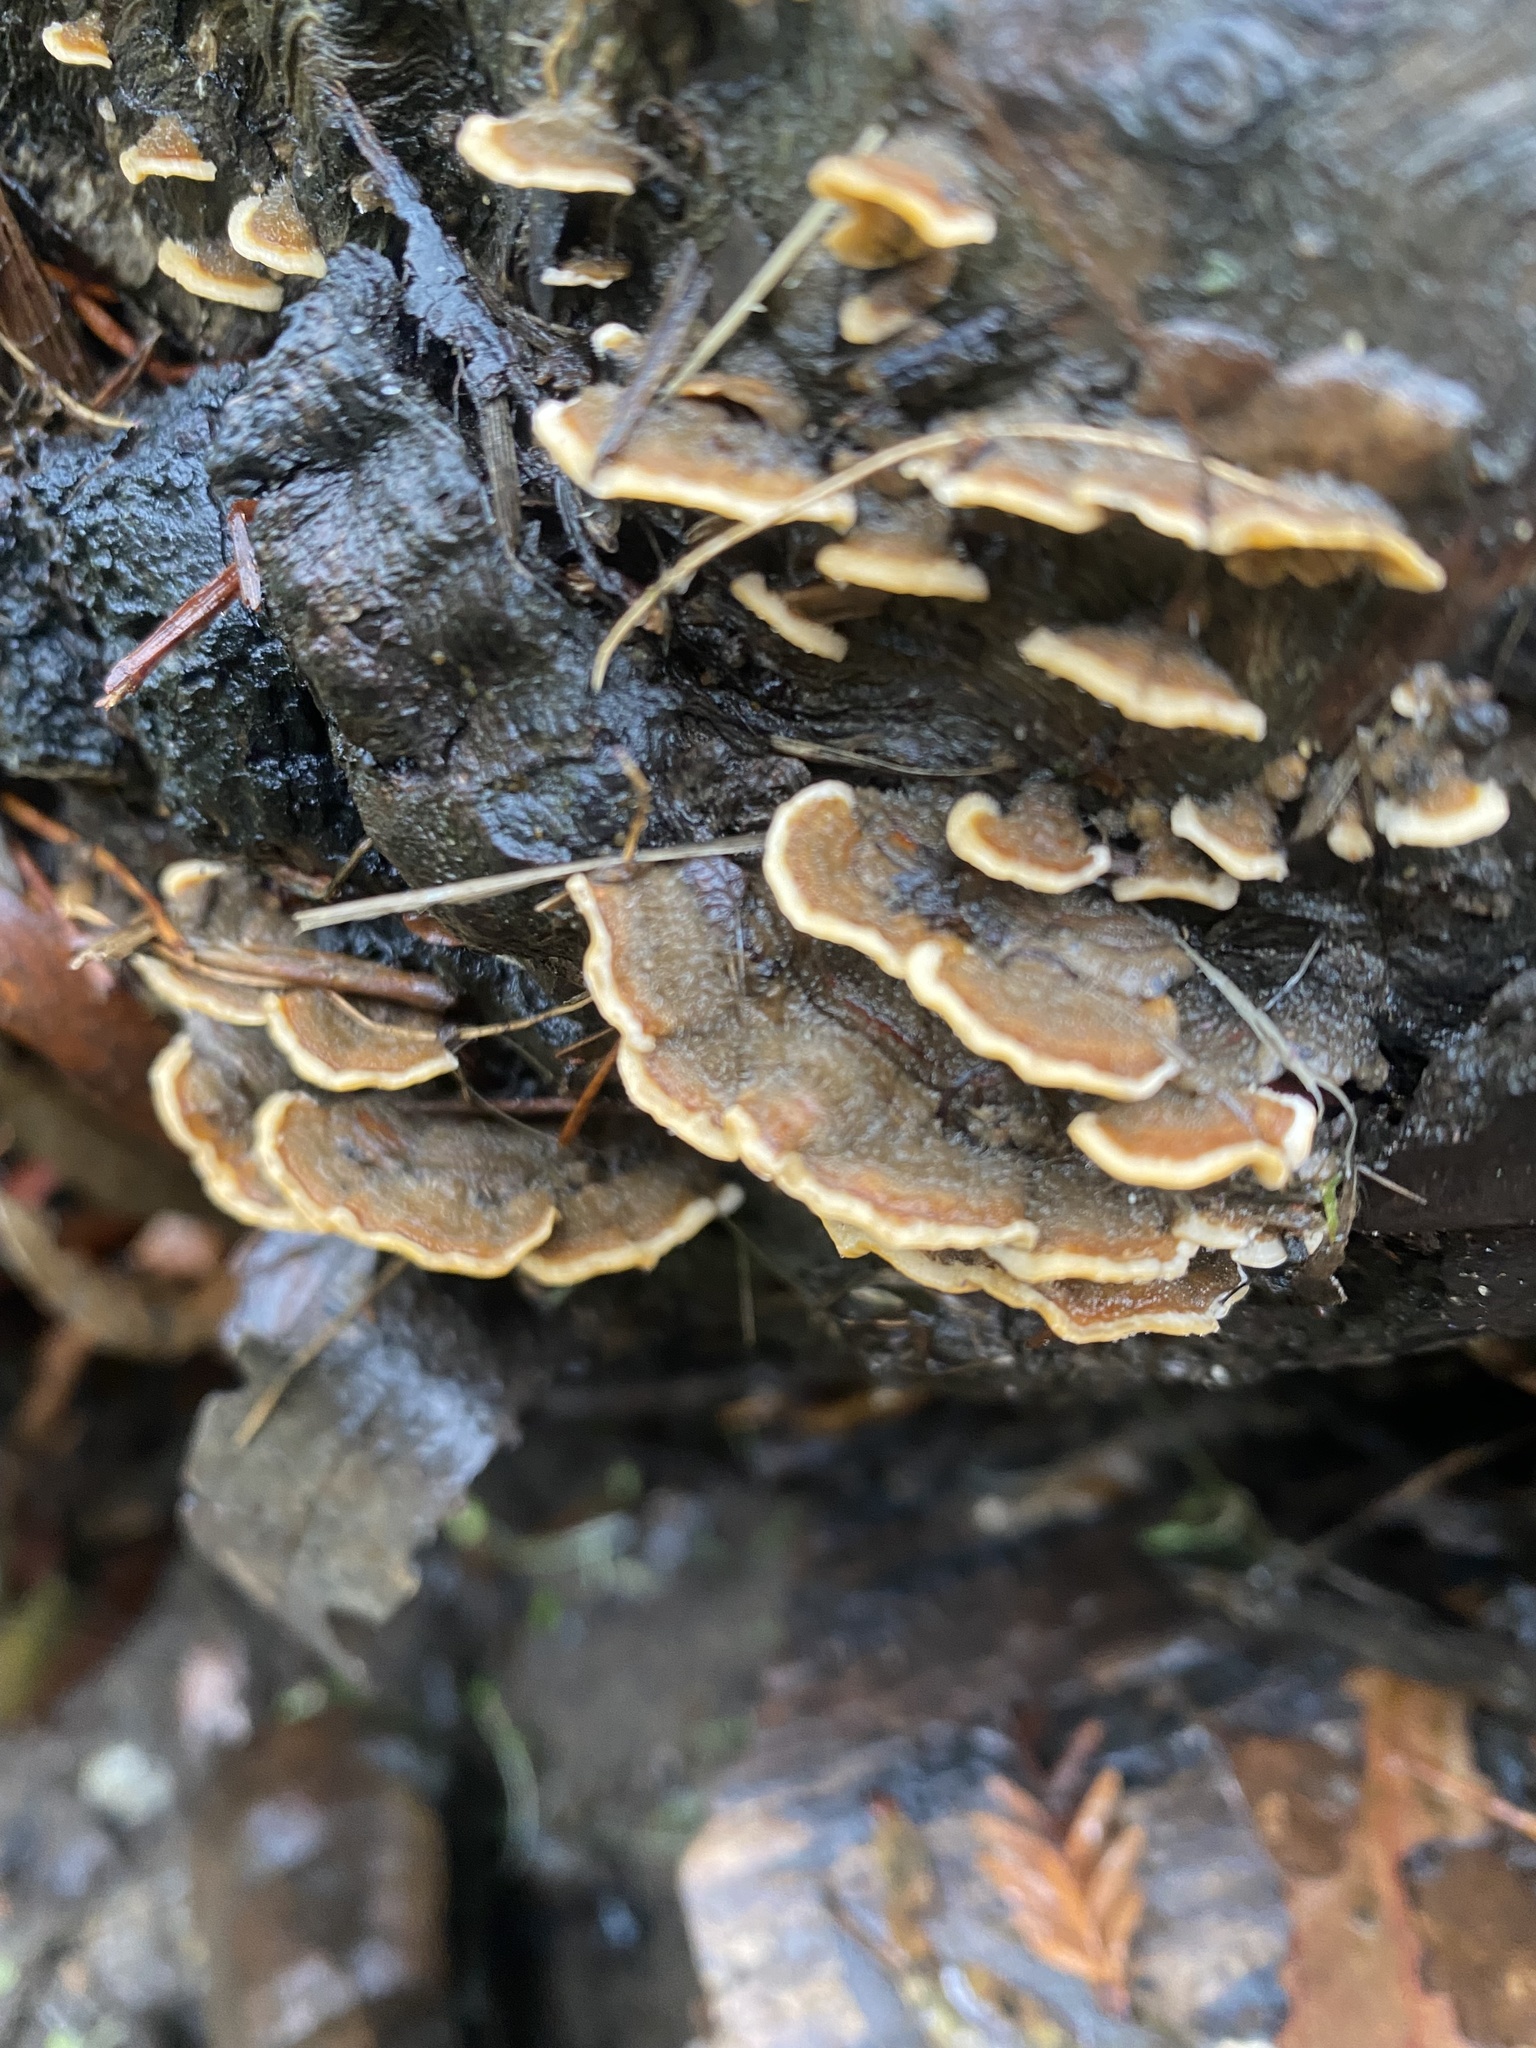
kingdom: Fungi
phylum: Basidiomycota
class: Agaricomycetes
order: Russulales
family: Stereaceae
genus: Stereum
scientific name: Stereum hirsutum
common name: Hairy curtain crust
